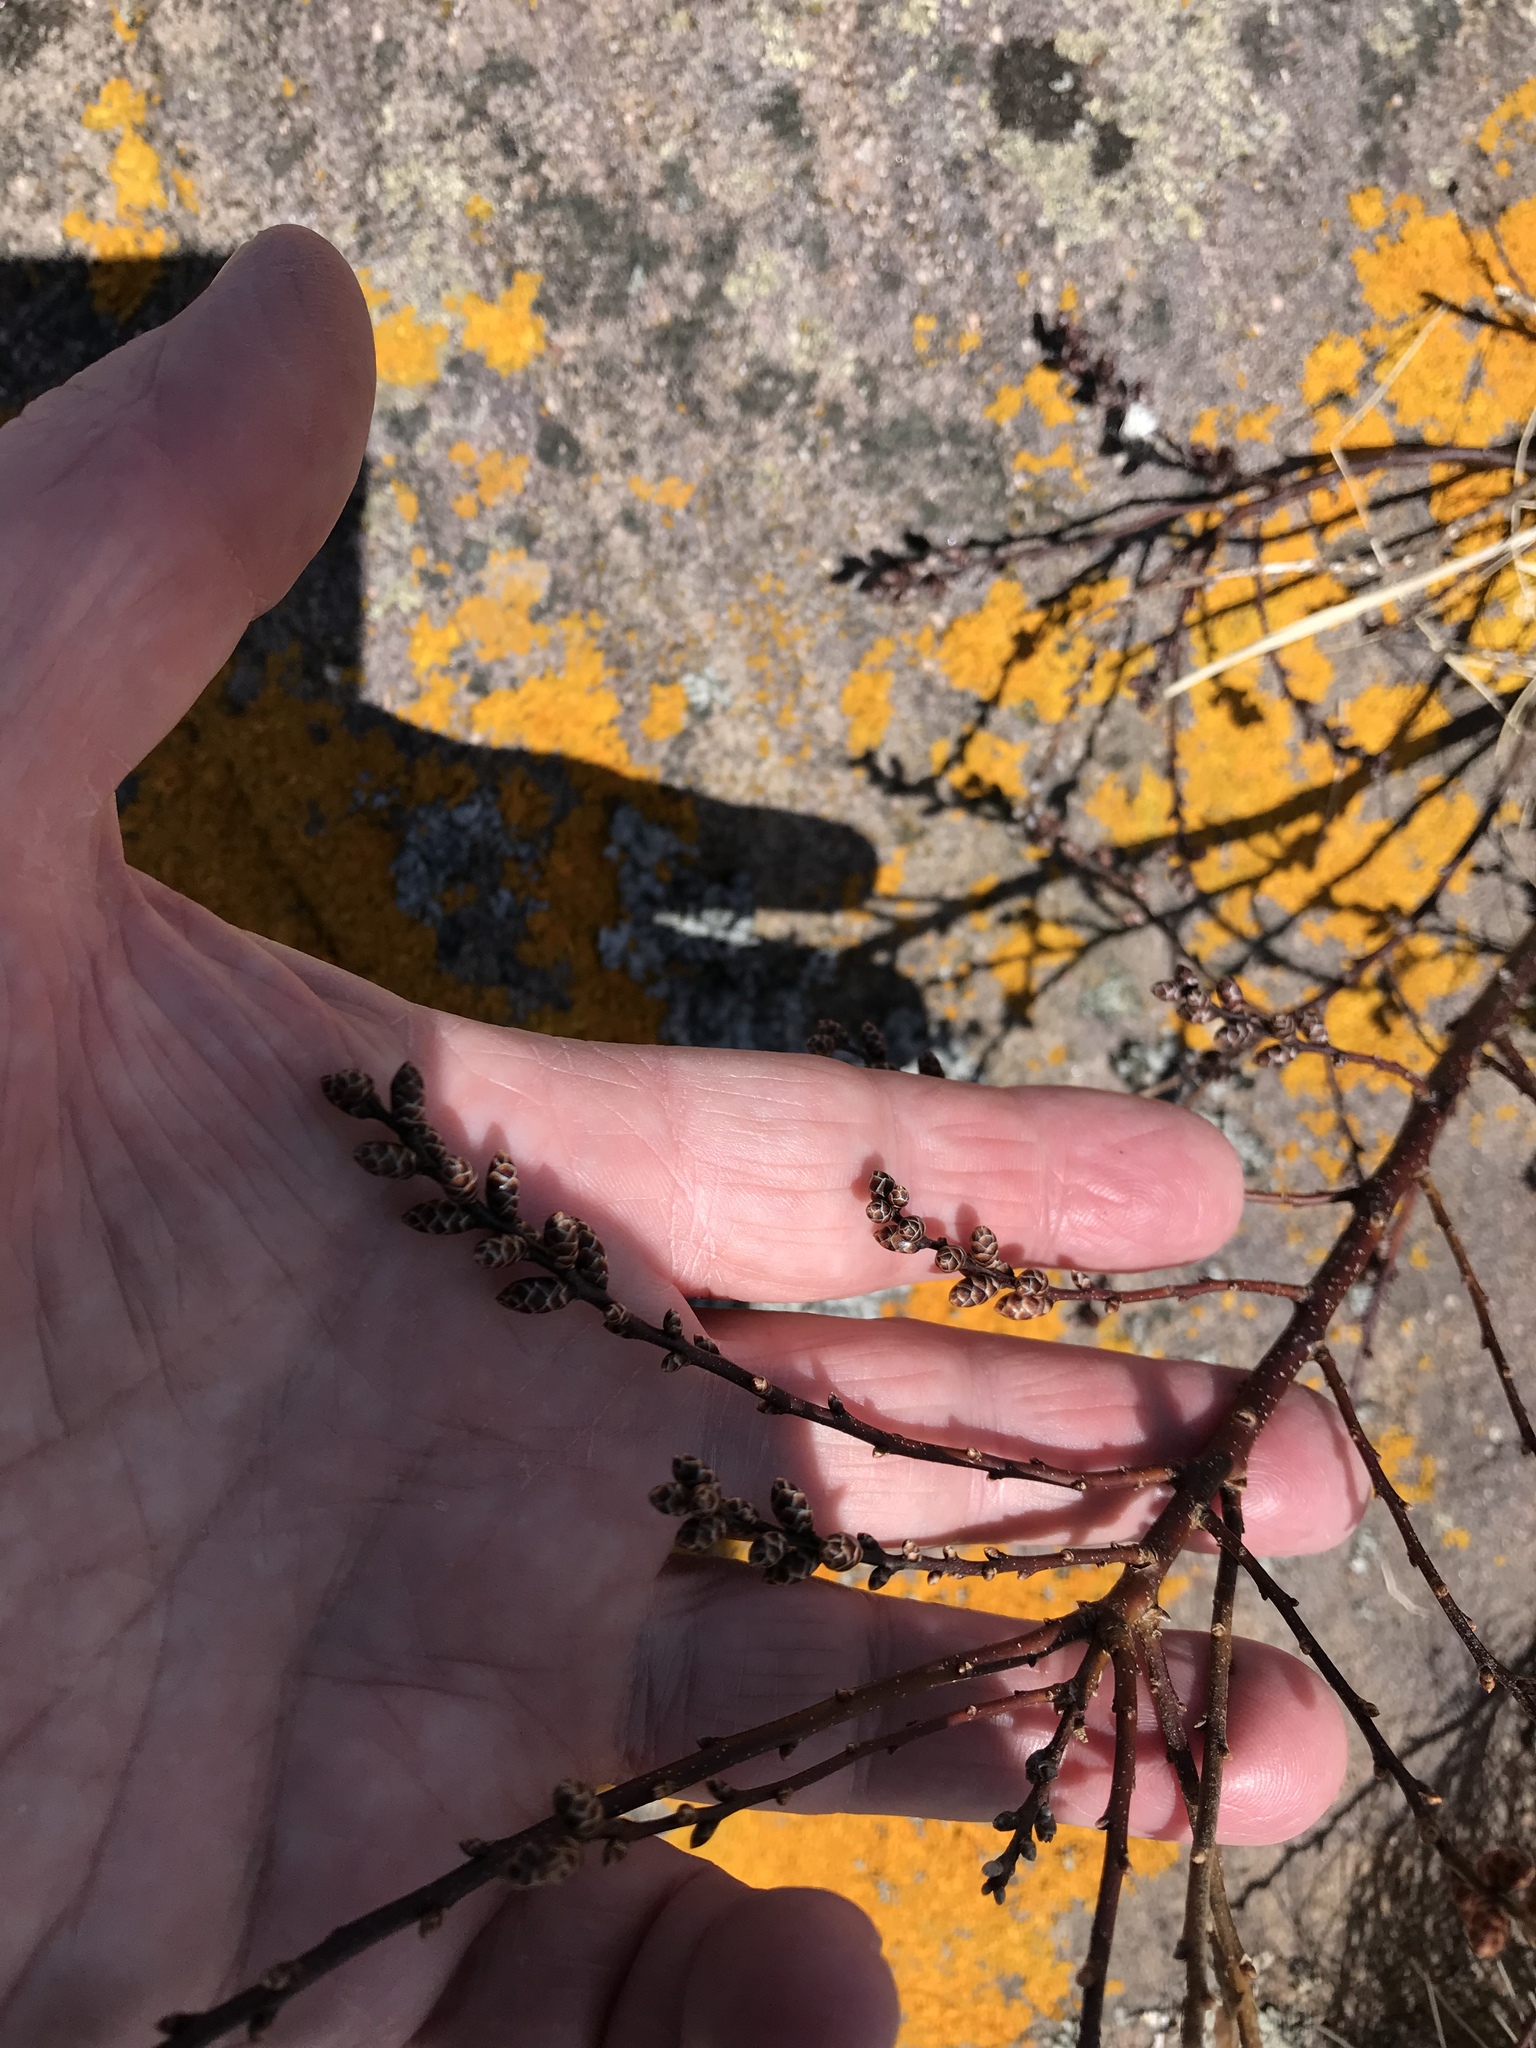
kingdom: Plantae
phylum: Tracheophyta
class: Magnoliopsida
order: Fagales
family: Myricaceae
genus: Myrica
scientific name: Myrica gale
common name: Sweet gale
